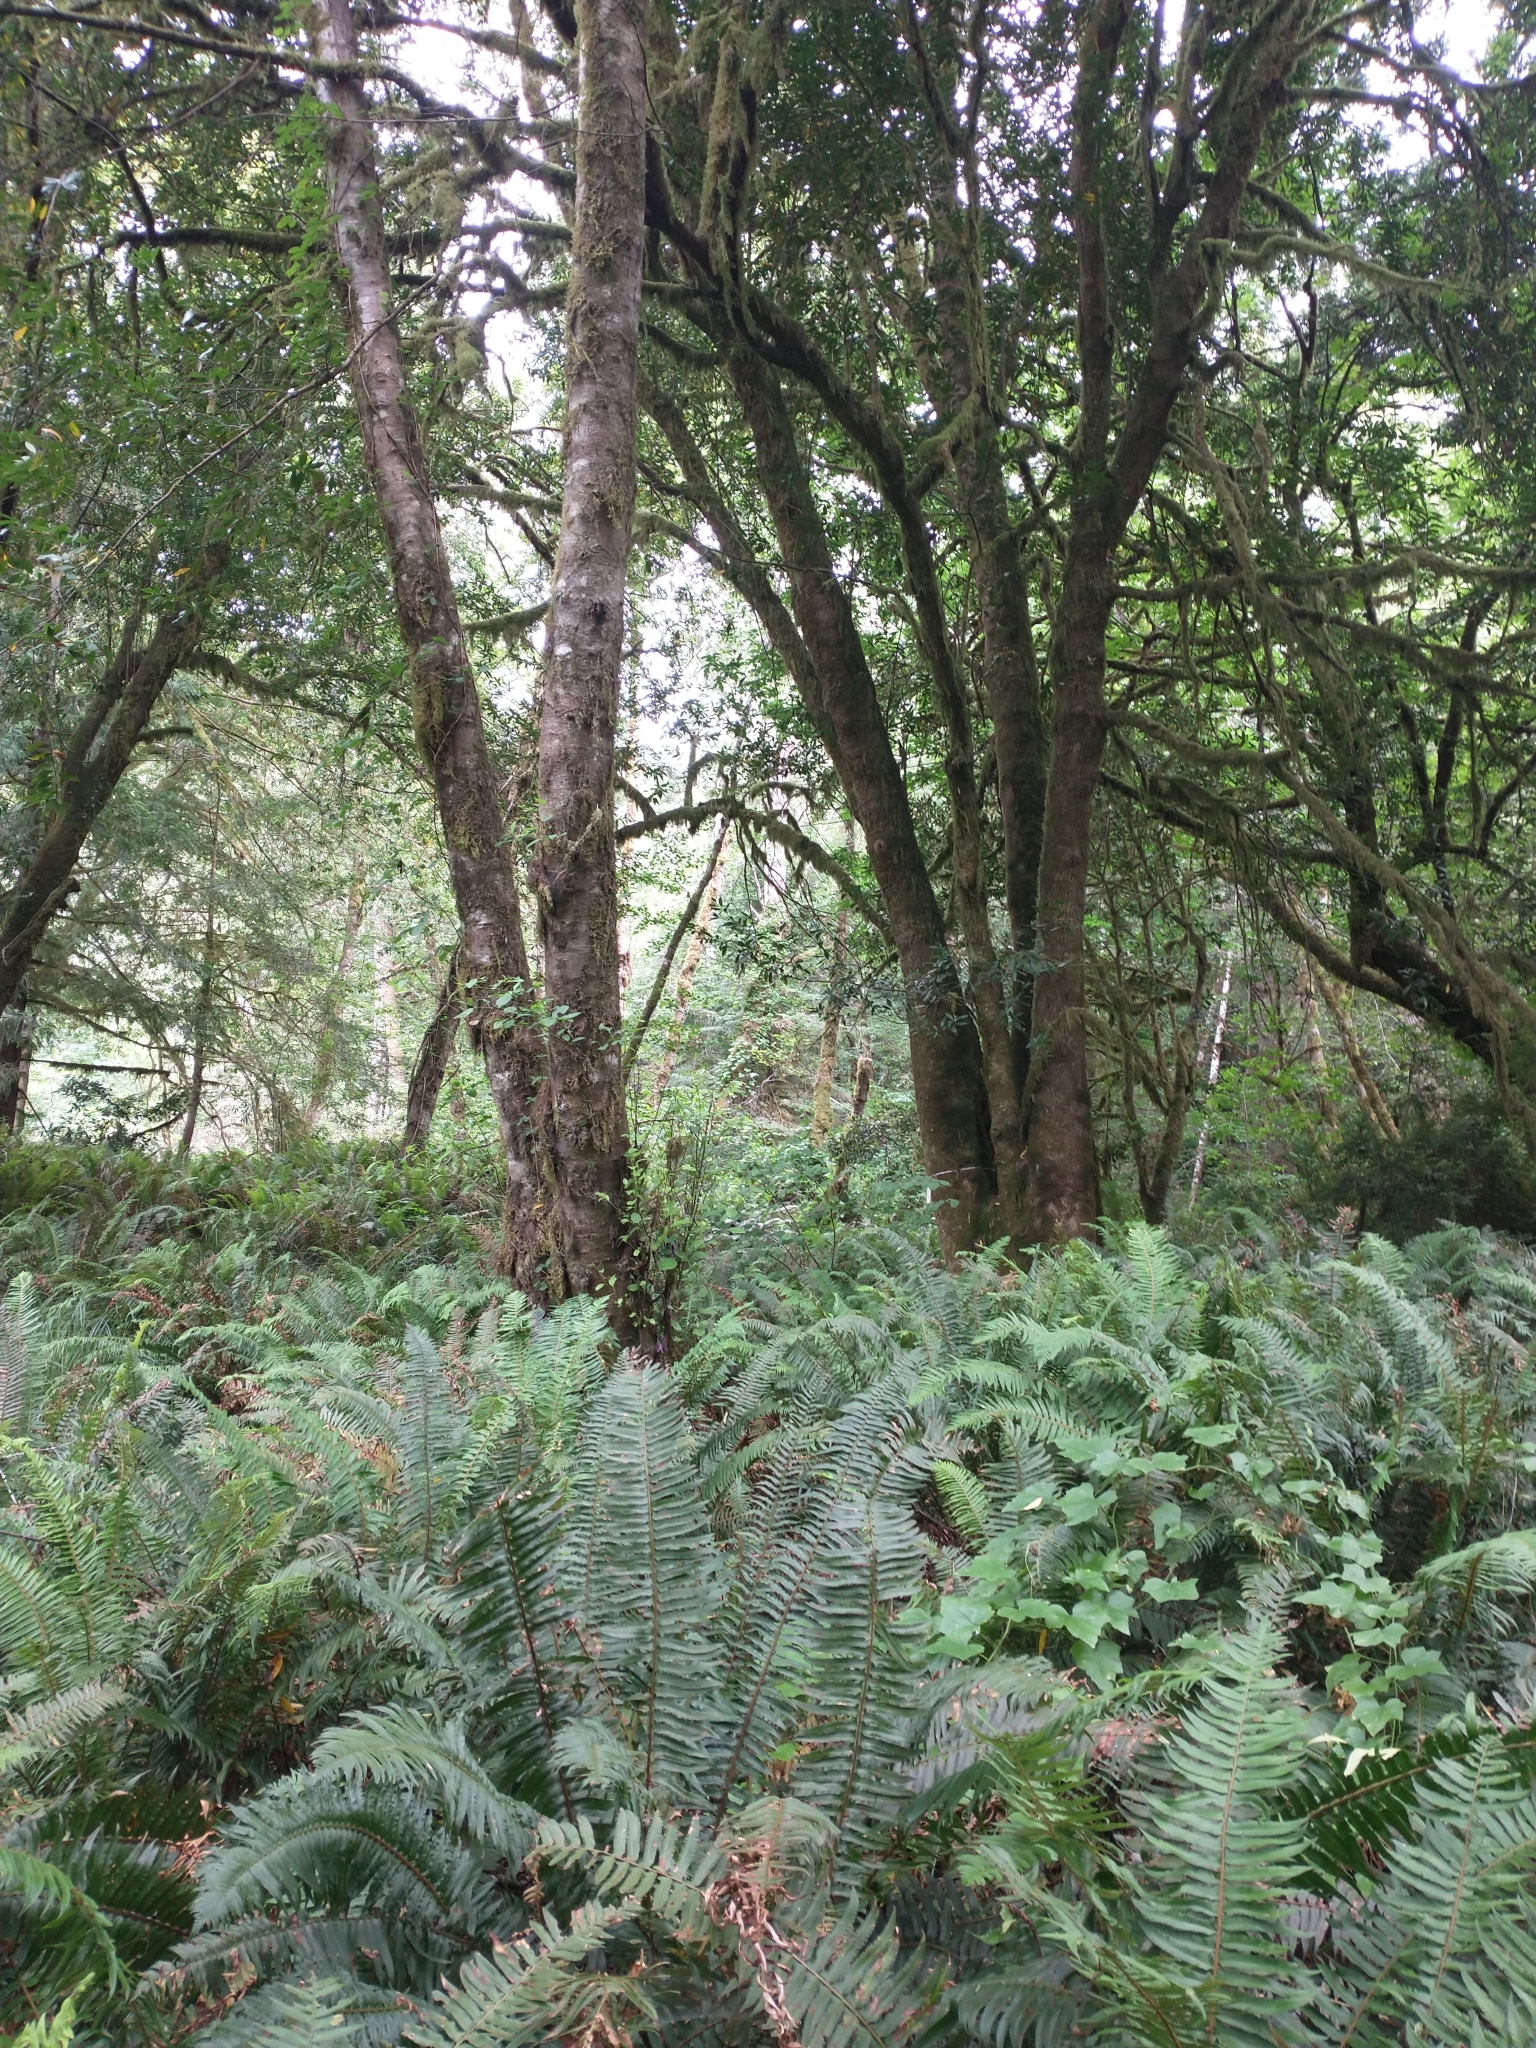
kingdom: Plantae
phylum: Tracheophyta
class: Magnoliopsida
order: Laurales
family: Lauraceae
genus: Umbellularia
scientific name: Umbellularia californica
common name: California bay
